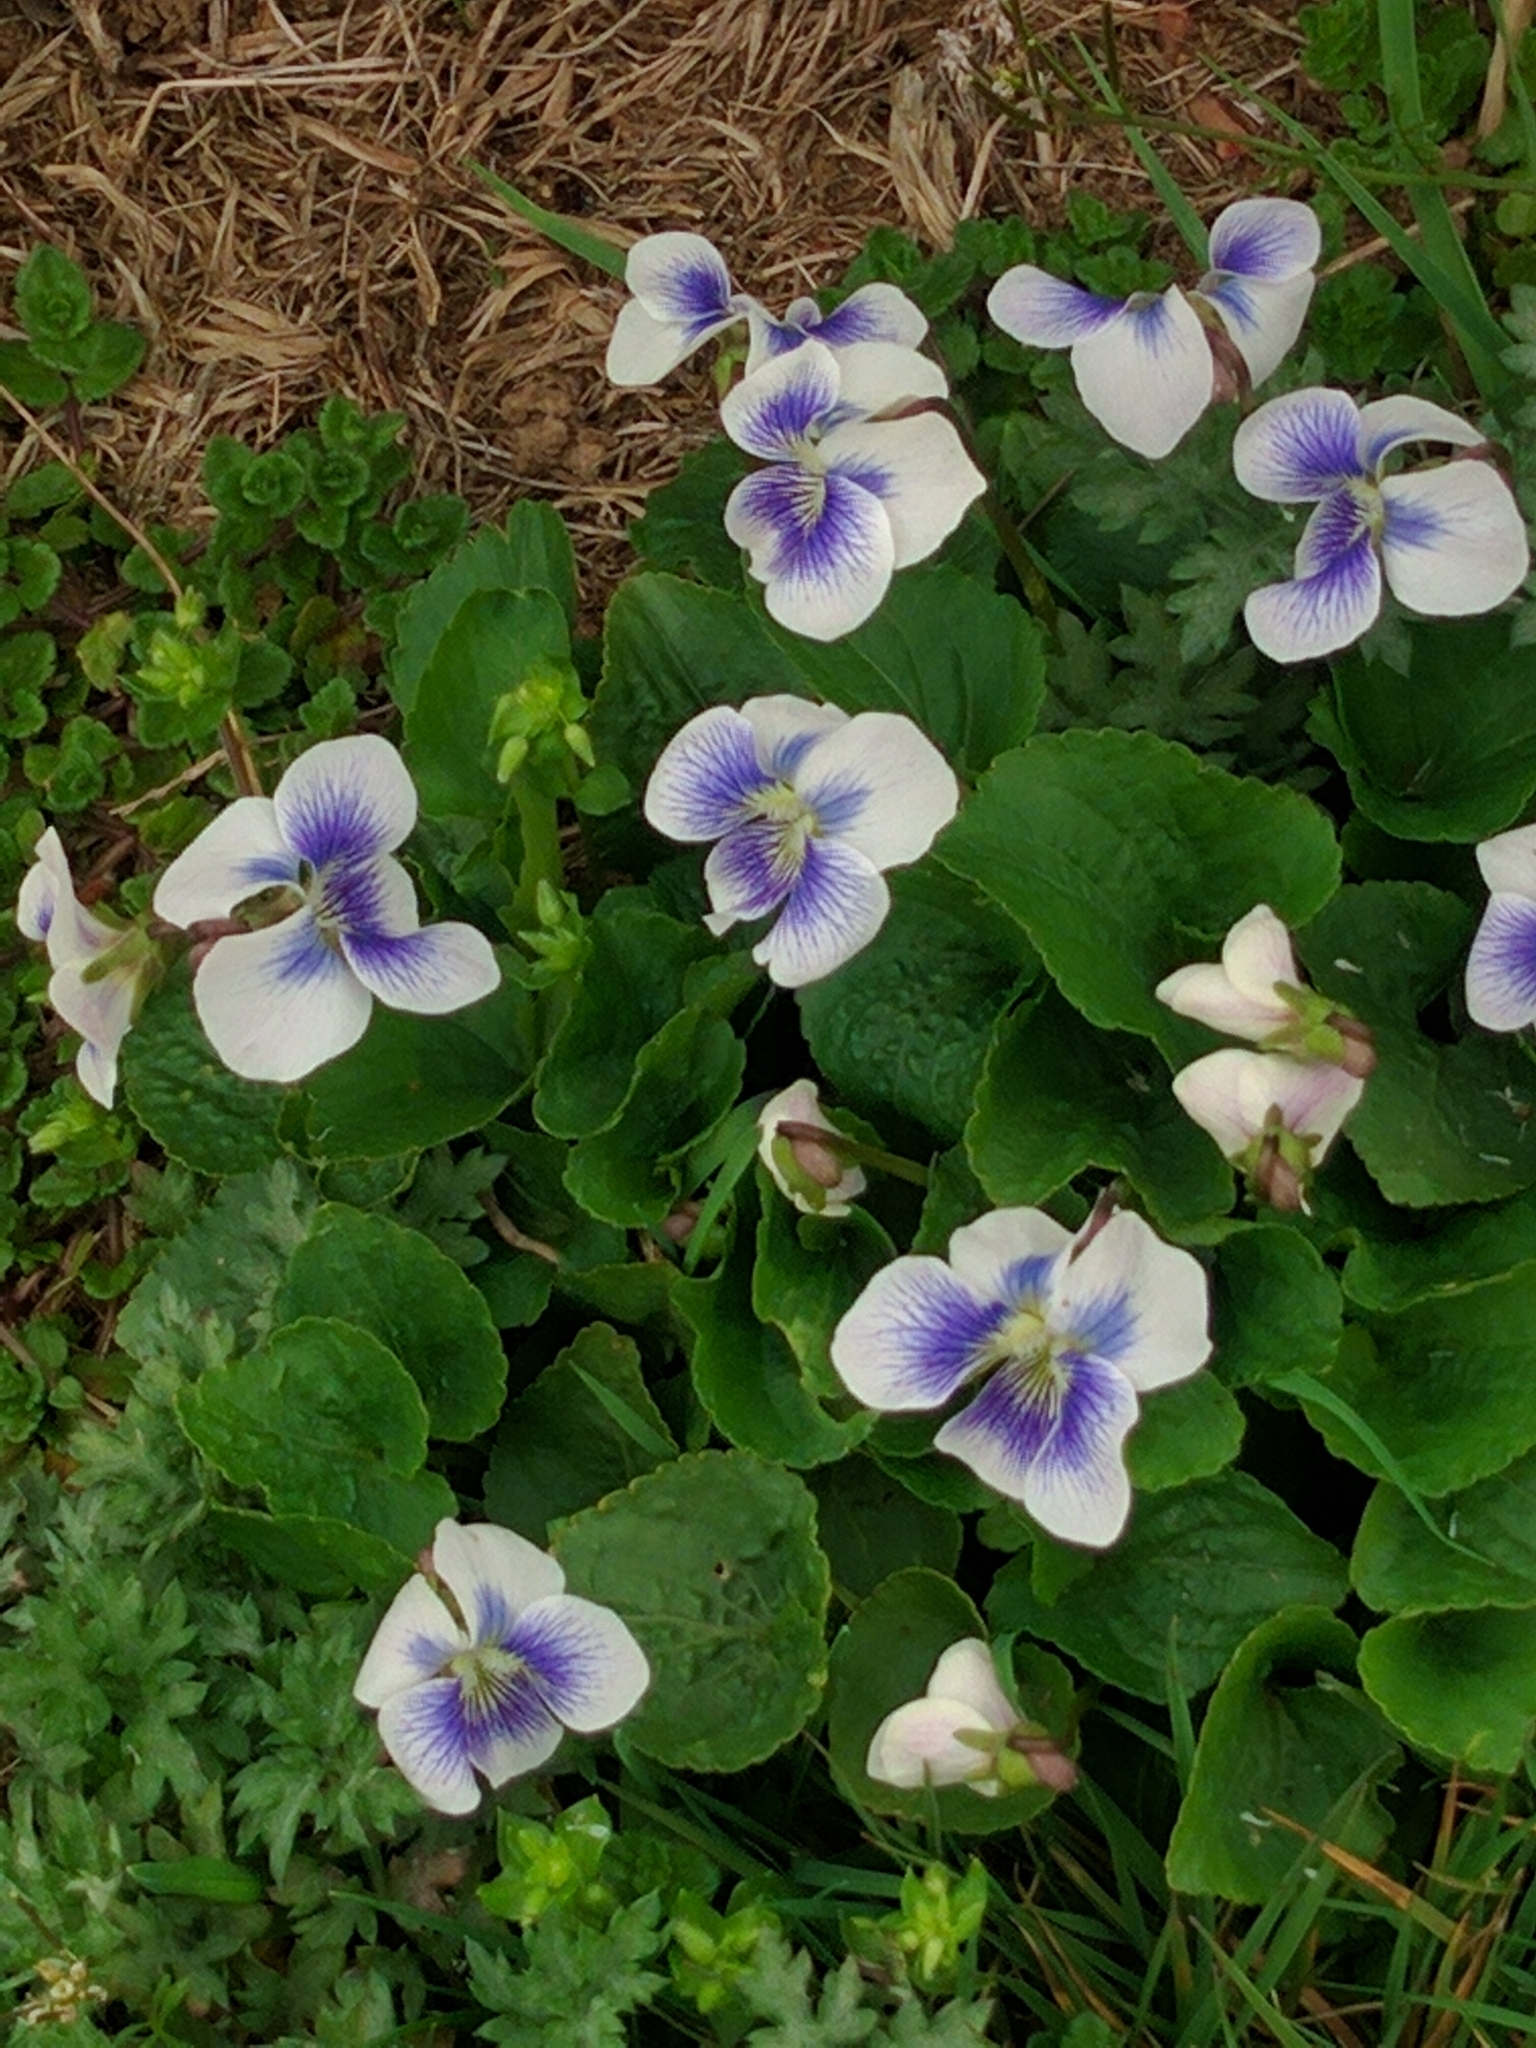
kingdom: Plantae
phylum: Tracheophyta
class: Magnoliopsida
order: Malpighiales
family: Violaceae
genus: Viola
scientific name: Viola sororia
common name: Dooryard violet
